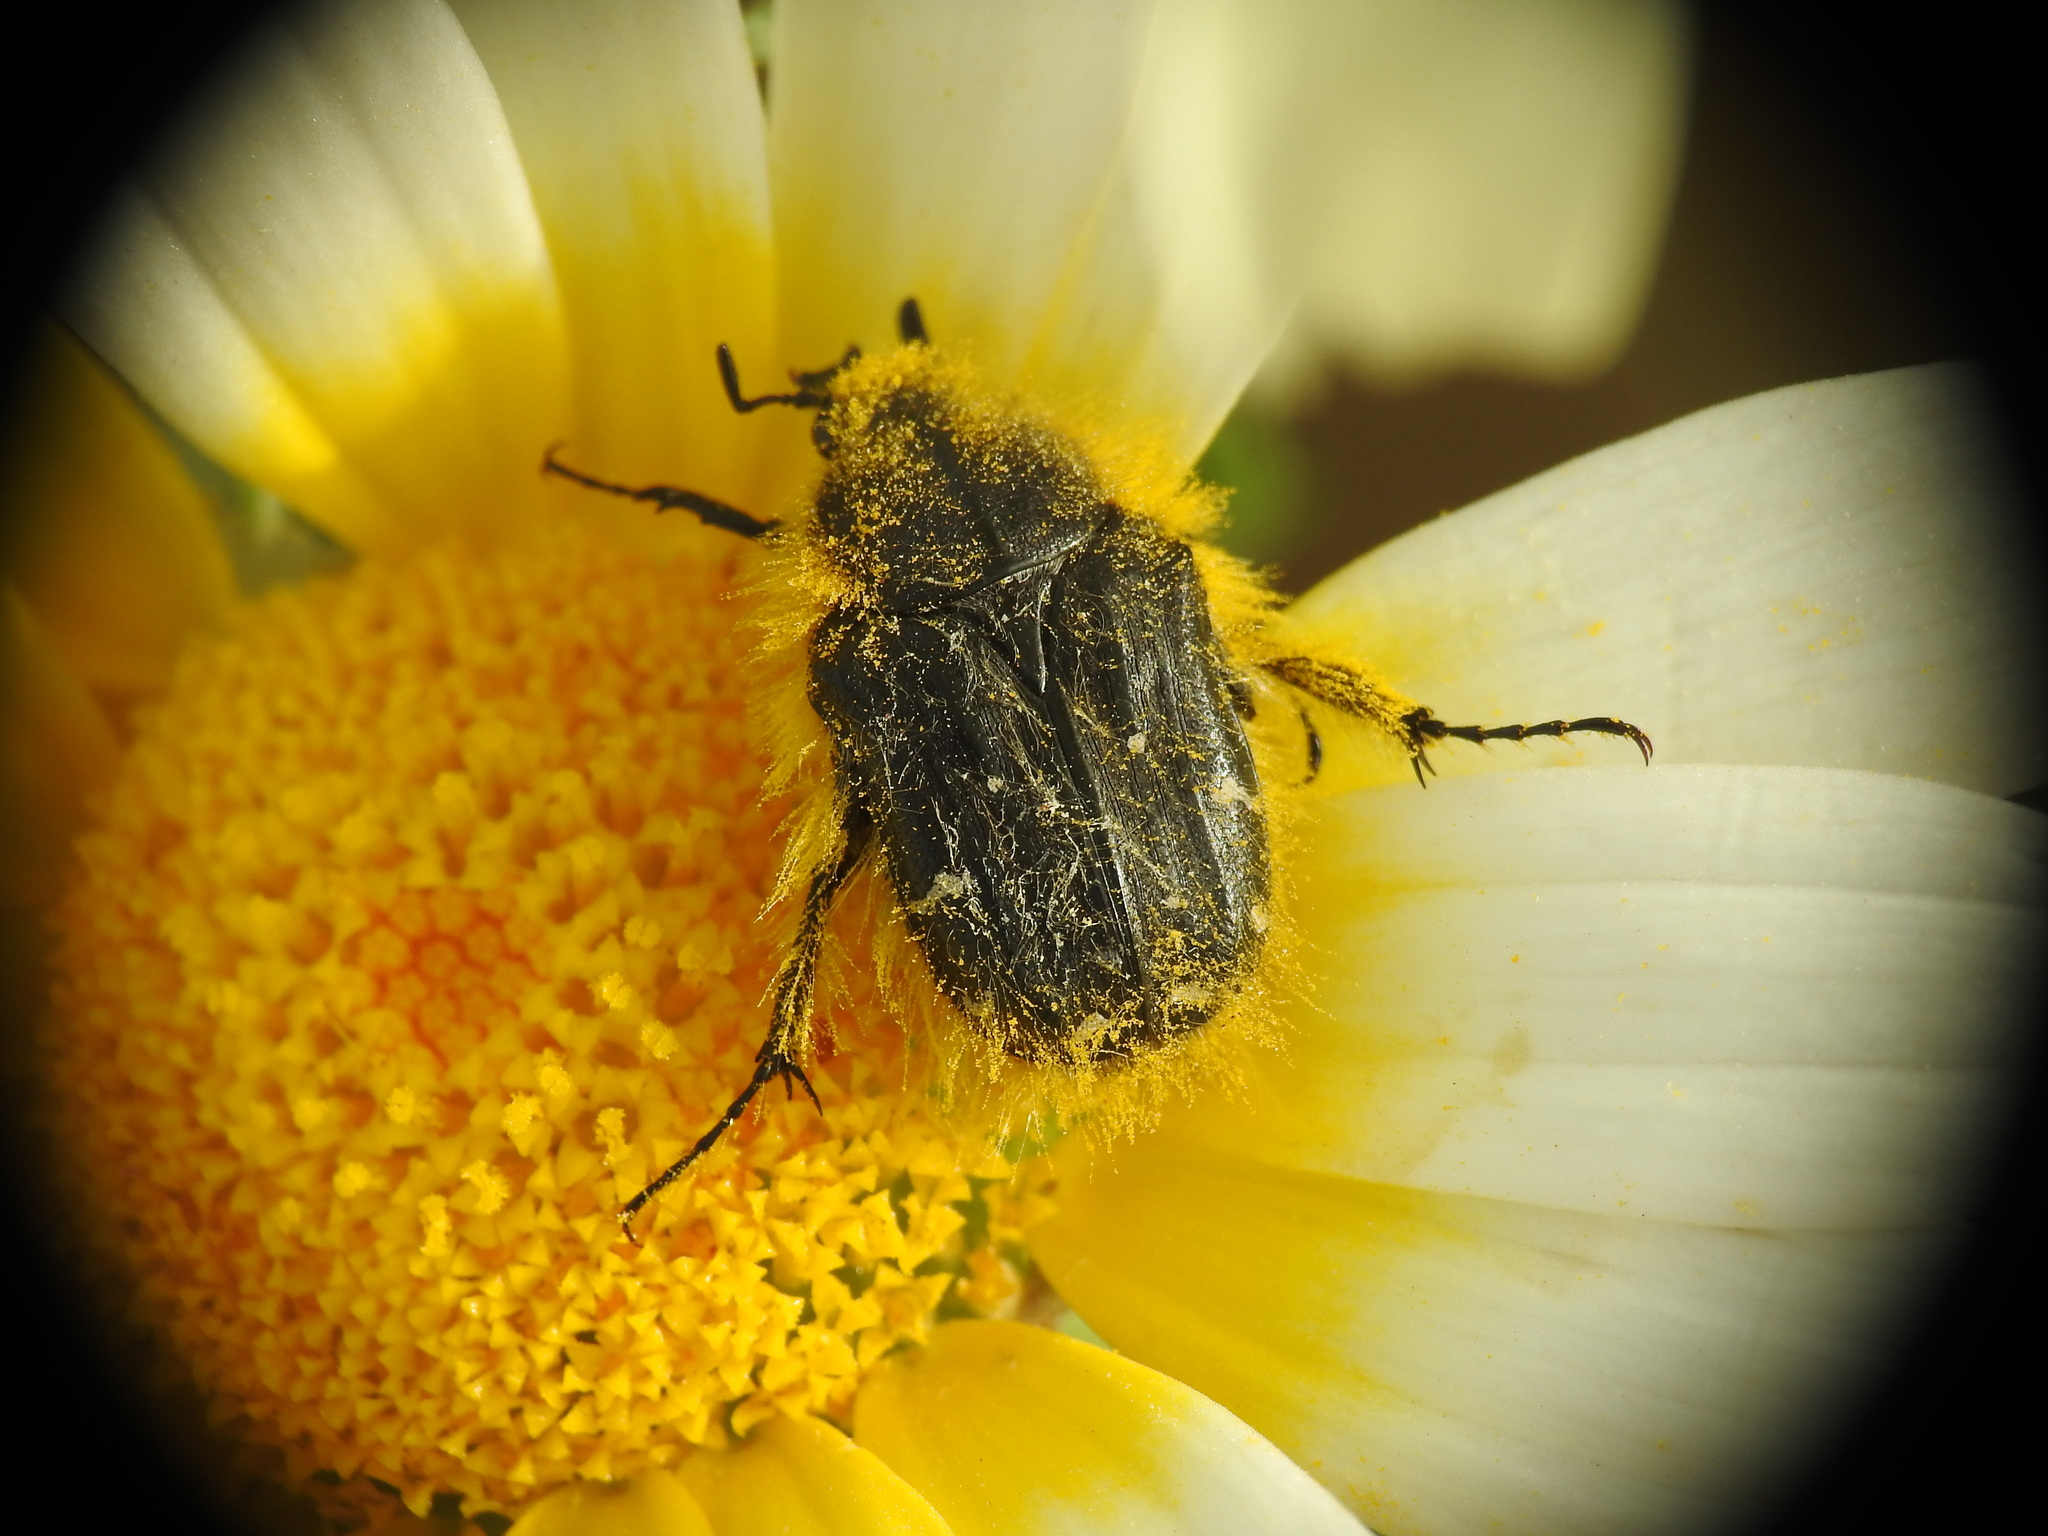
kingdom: Animalia
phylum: Arthropoda
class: Insecta
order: Coleoptera
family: Scarabaeidae
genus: Tropinota
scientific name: Tropinota hirta
